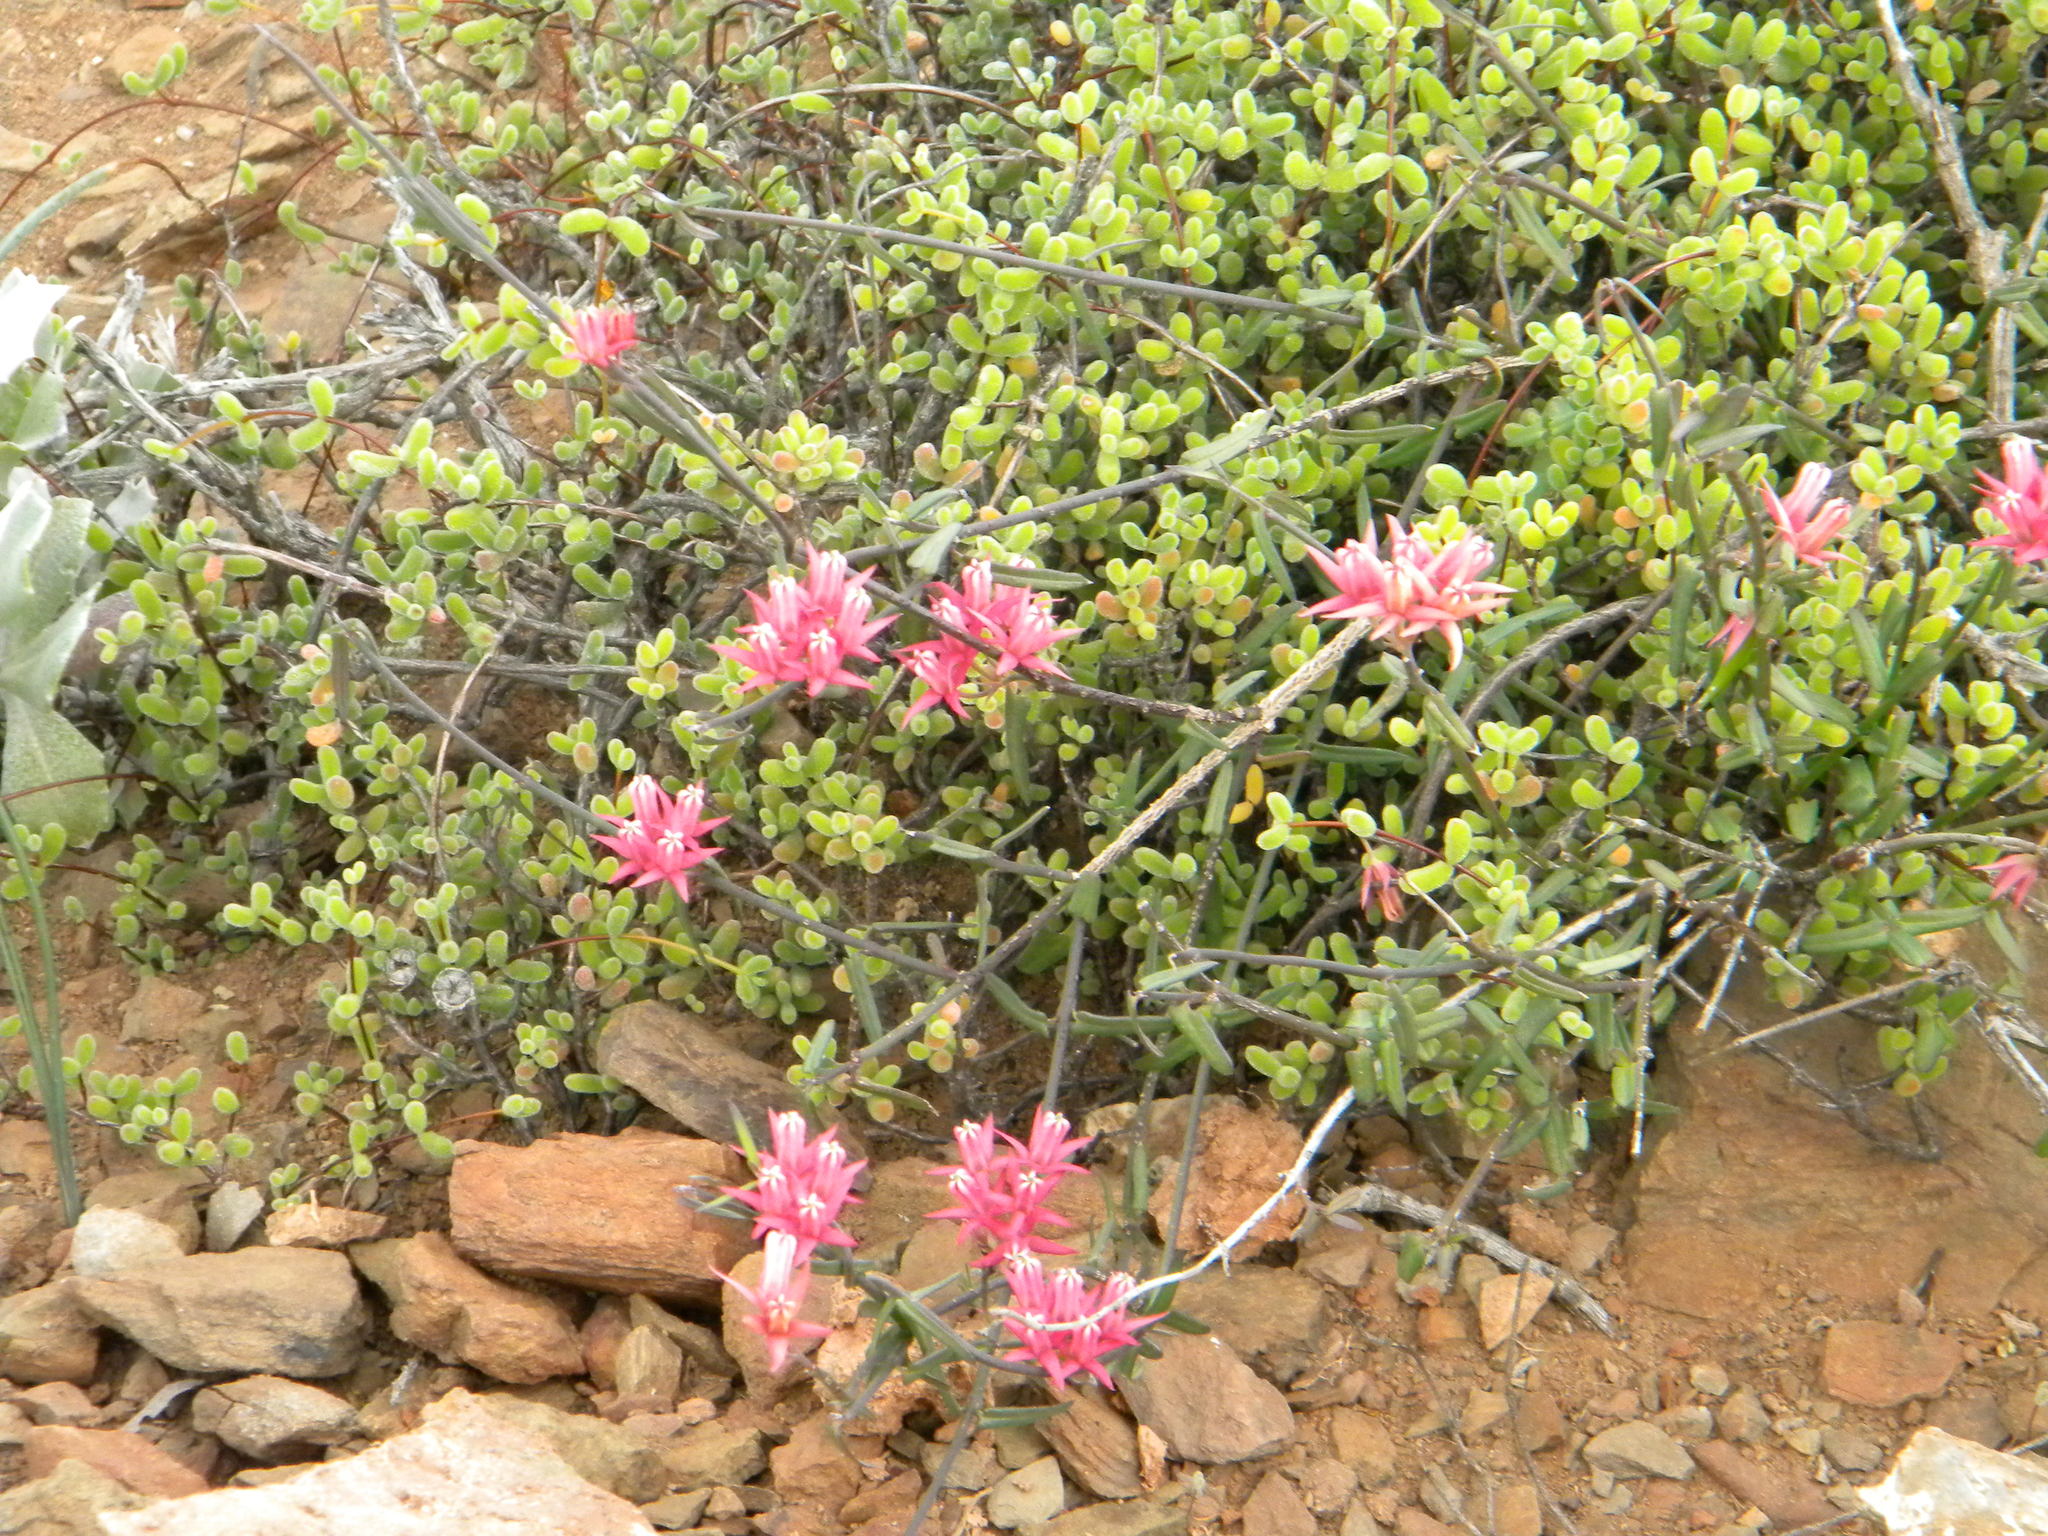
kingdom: Plantae
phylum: Tracheophyta
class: Magnoliopsida
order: Gentianales
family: Apocynaceae
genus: Microloma
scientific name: Microloma sagittatum
